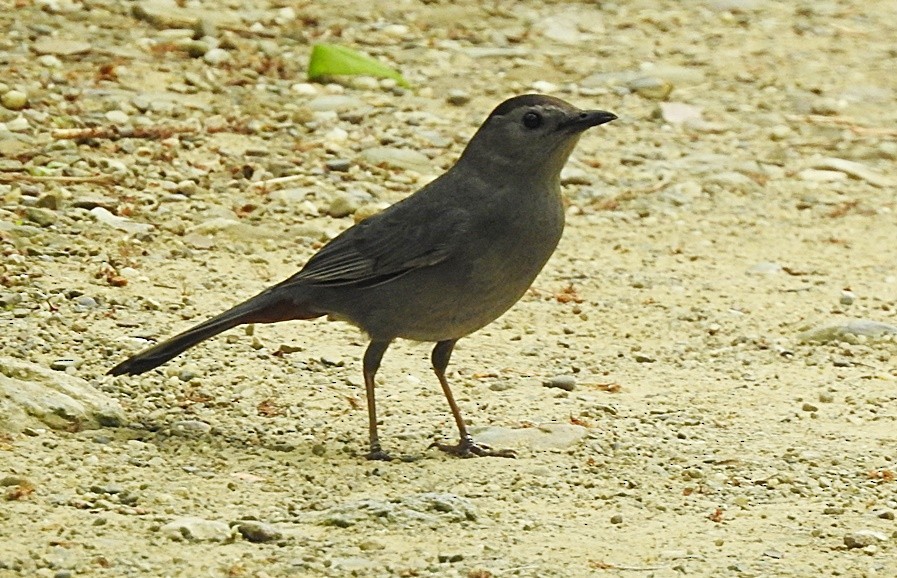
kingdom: Animalia
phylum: Chordata
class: Aves
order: Passeriformes
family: Mimidae
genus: Dumetella
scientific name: Dumetella carolinensis
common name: Gray catbird
